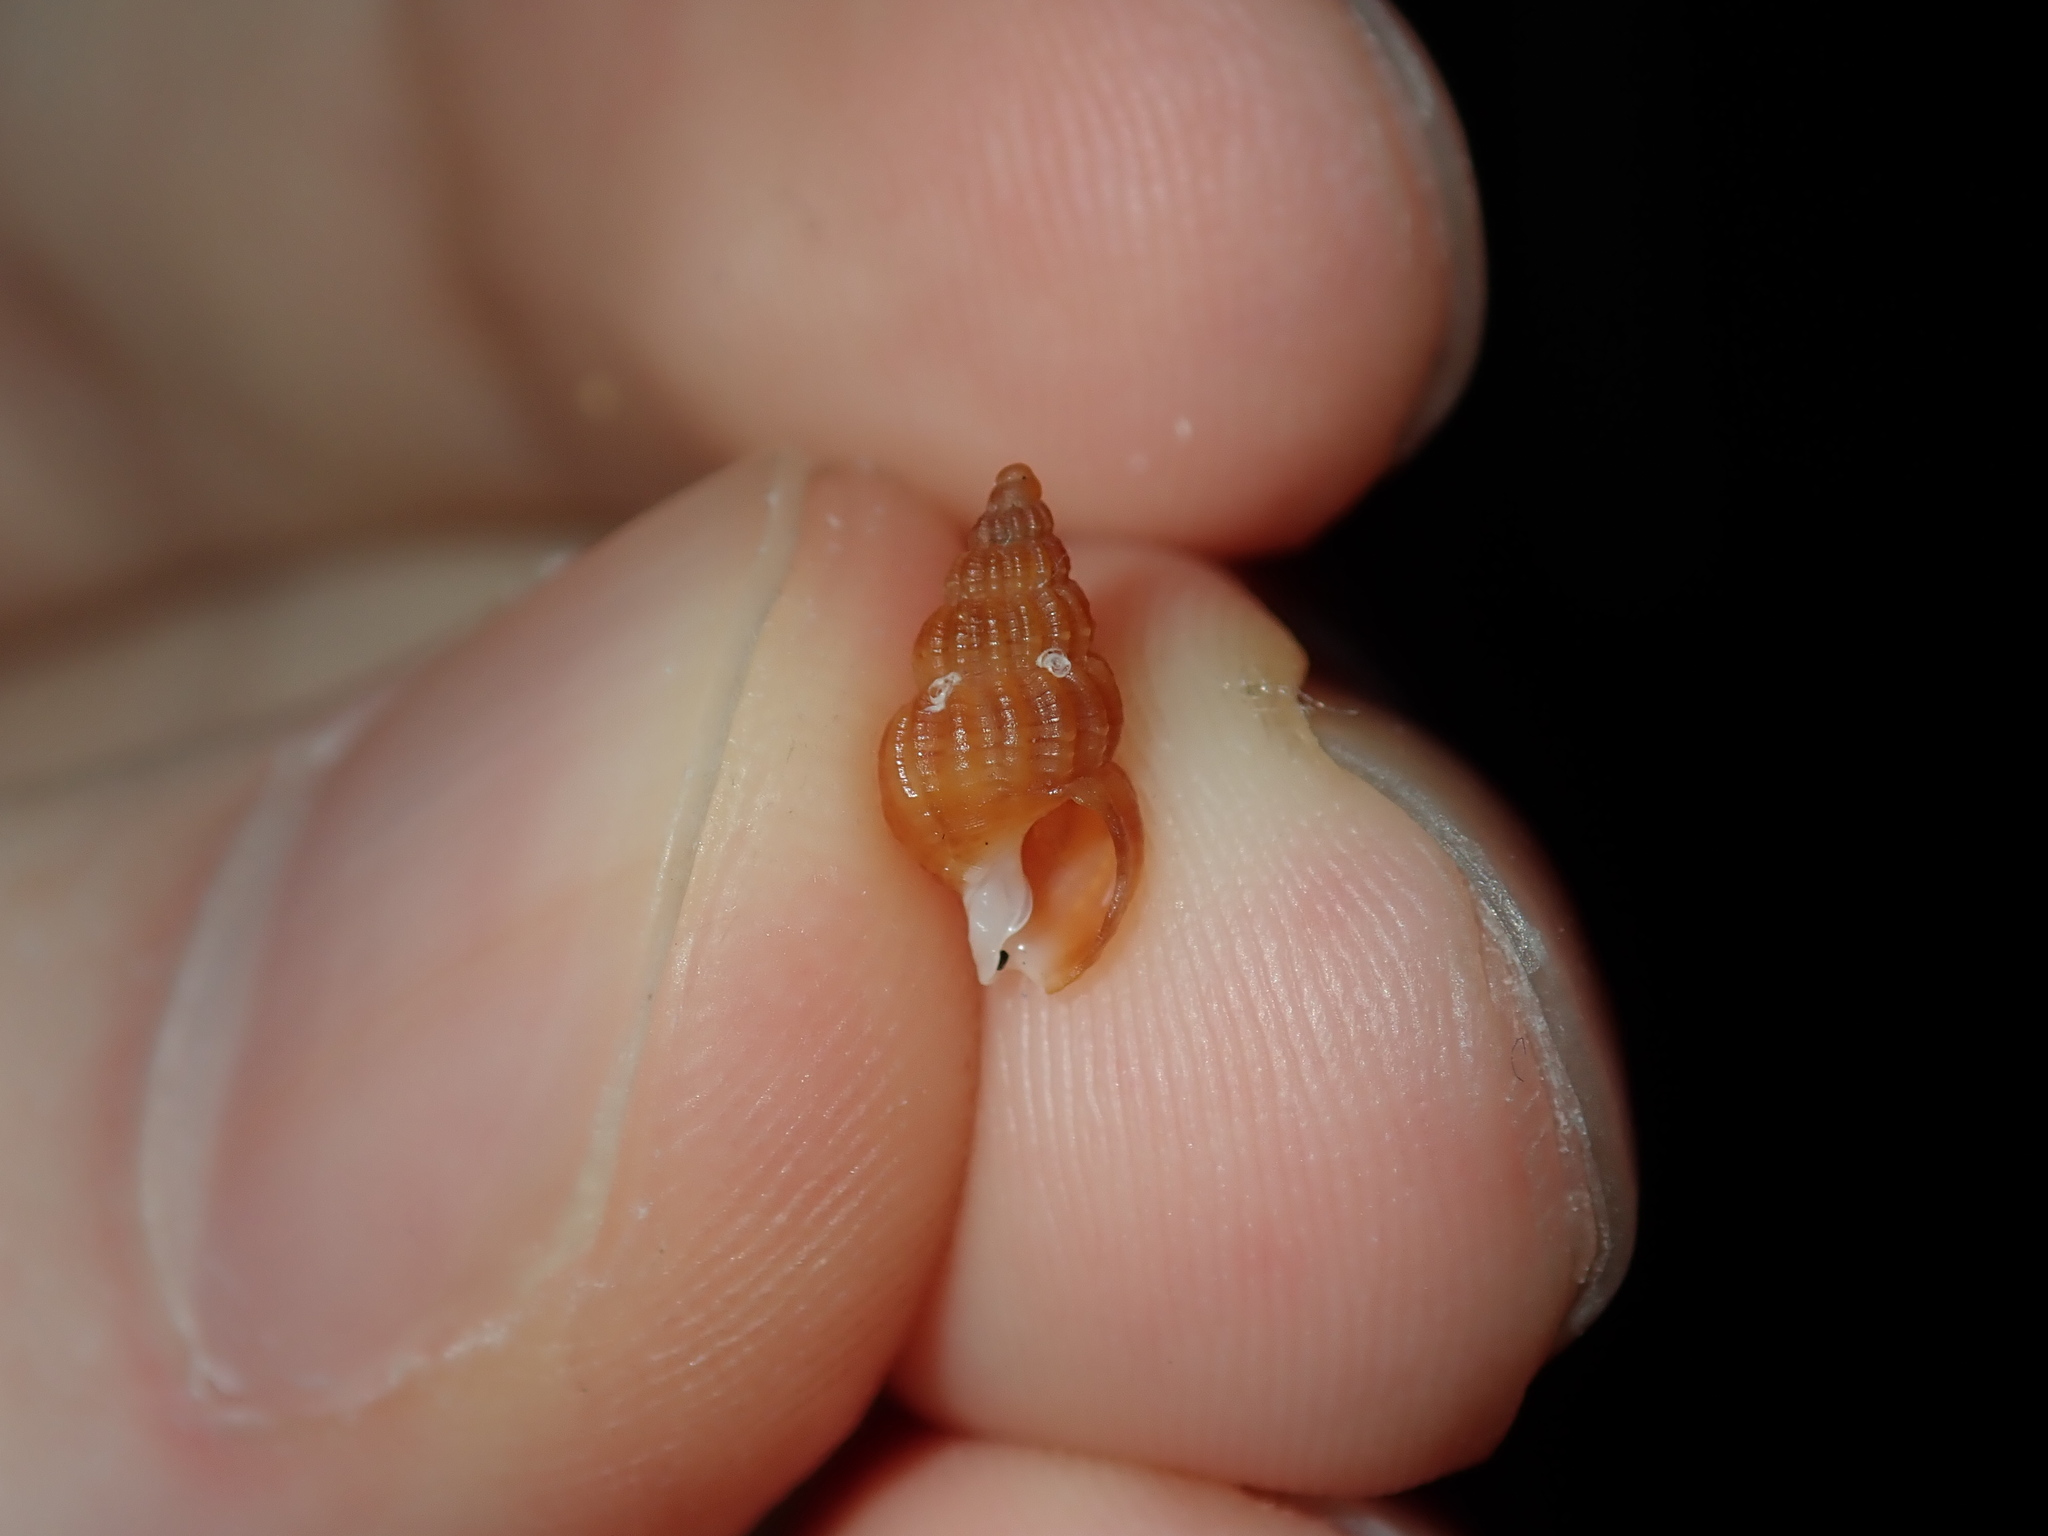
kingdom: Animalia
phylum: Mollusca
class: Gastropoda
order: Neogastropoda
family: Nassariidae
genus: Reticunassa
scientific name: Reticunassa paupera
